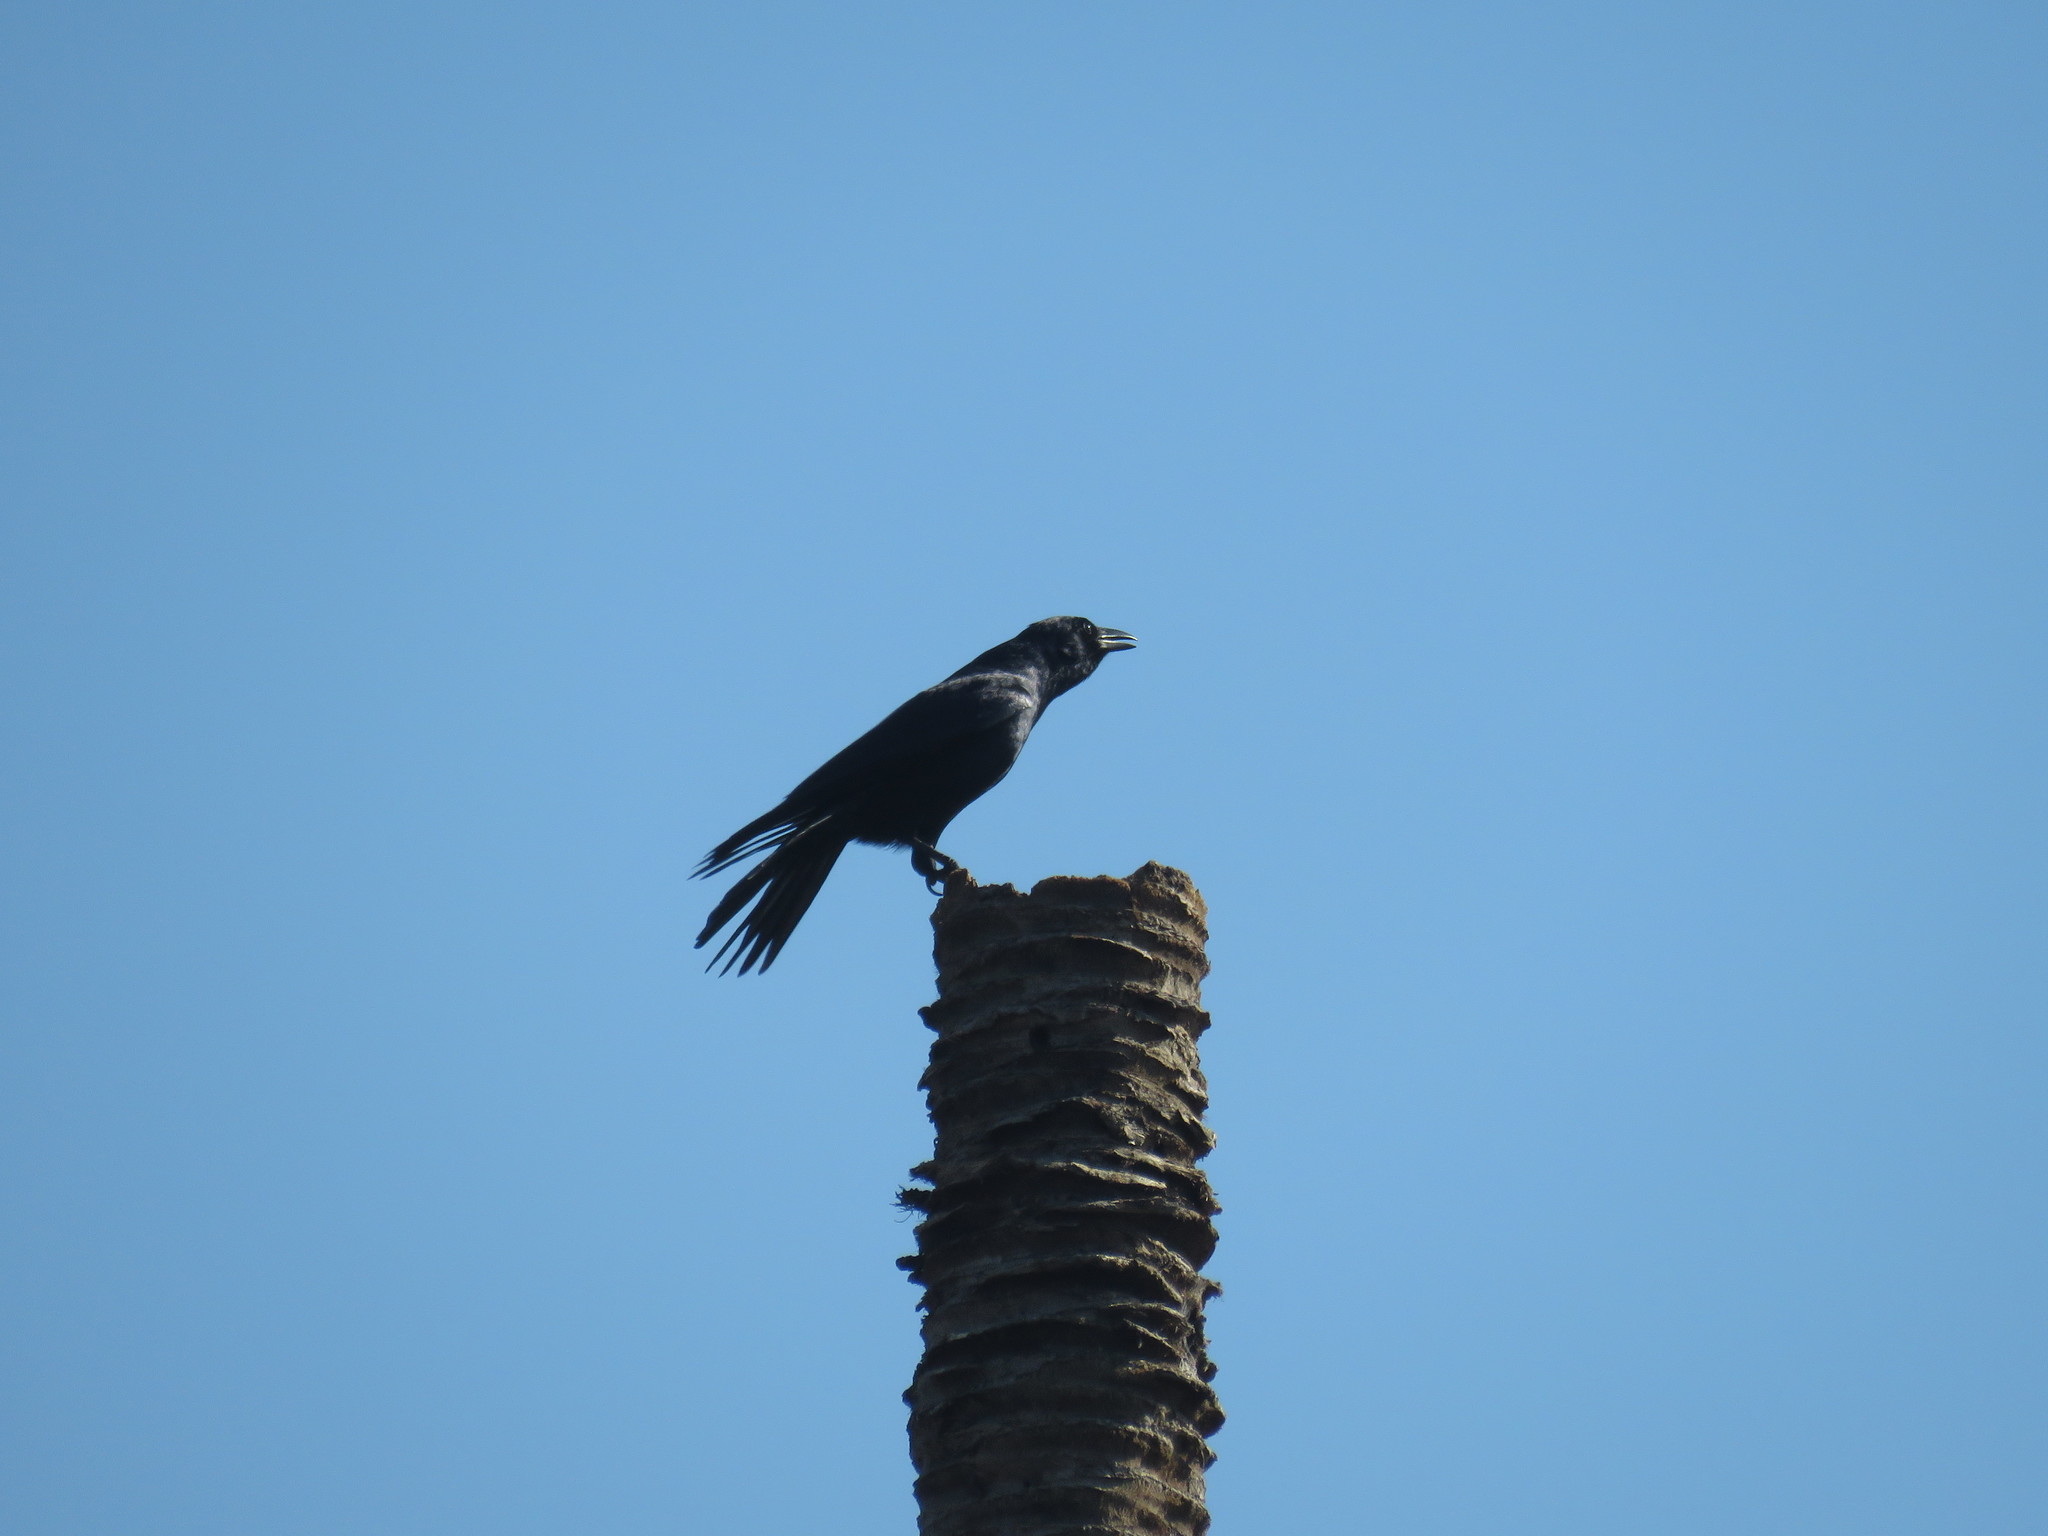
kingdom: Animalia
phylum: Chordata
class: Aves
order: Passeriformes
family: Corvidae
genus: Corvus
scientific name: Corvus sinaloae
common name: Sinaloa crow
